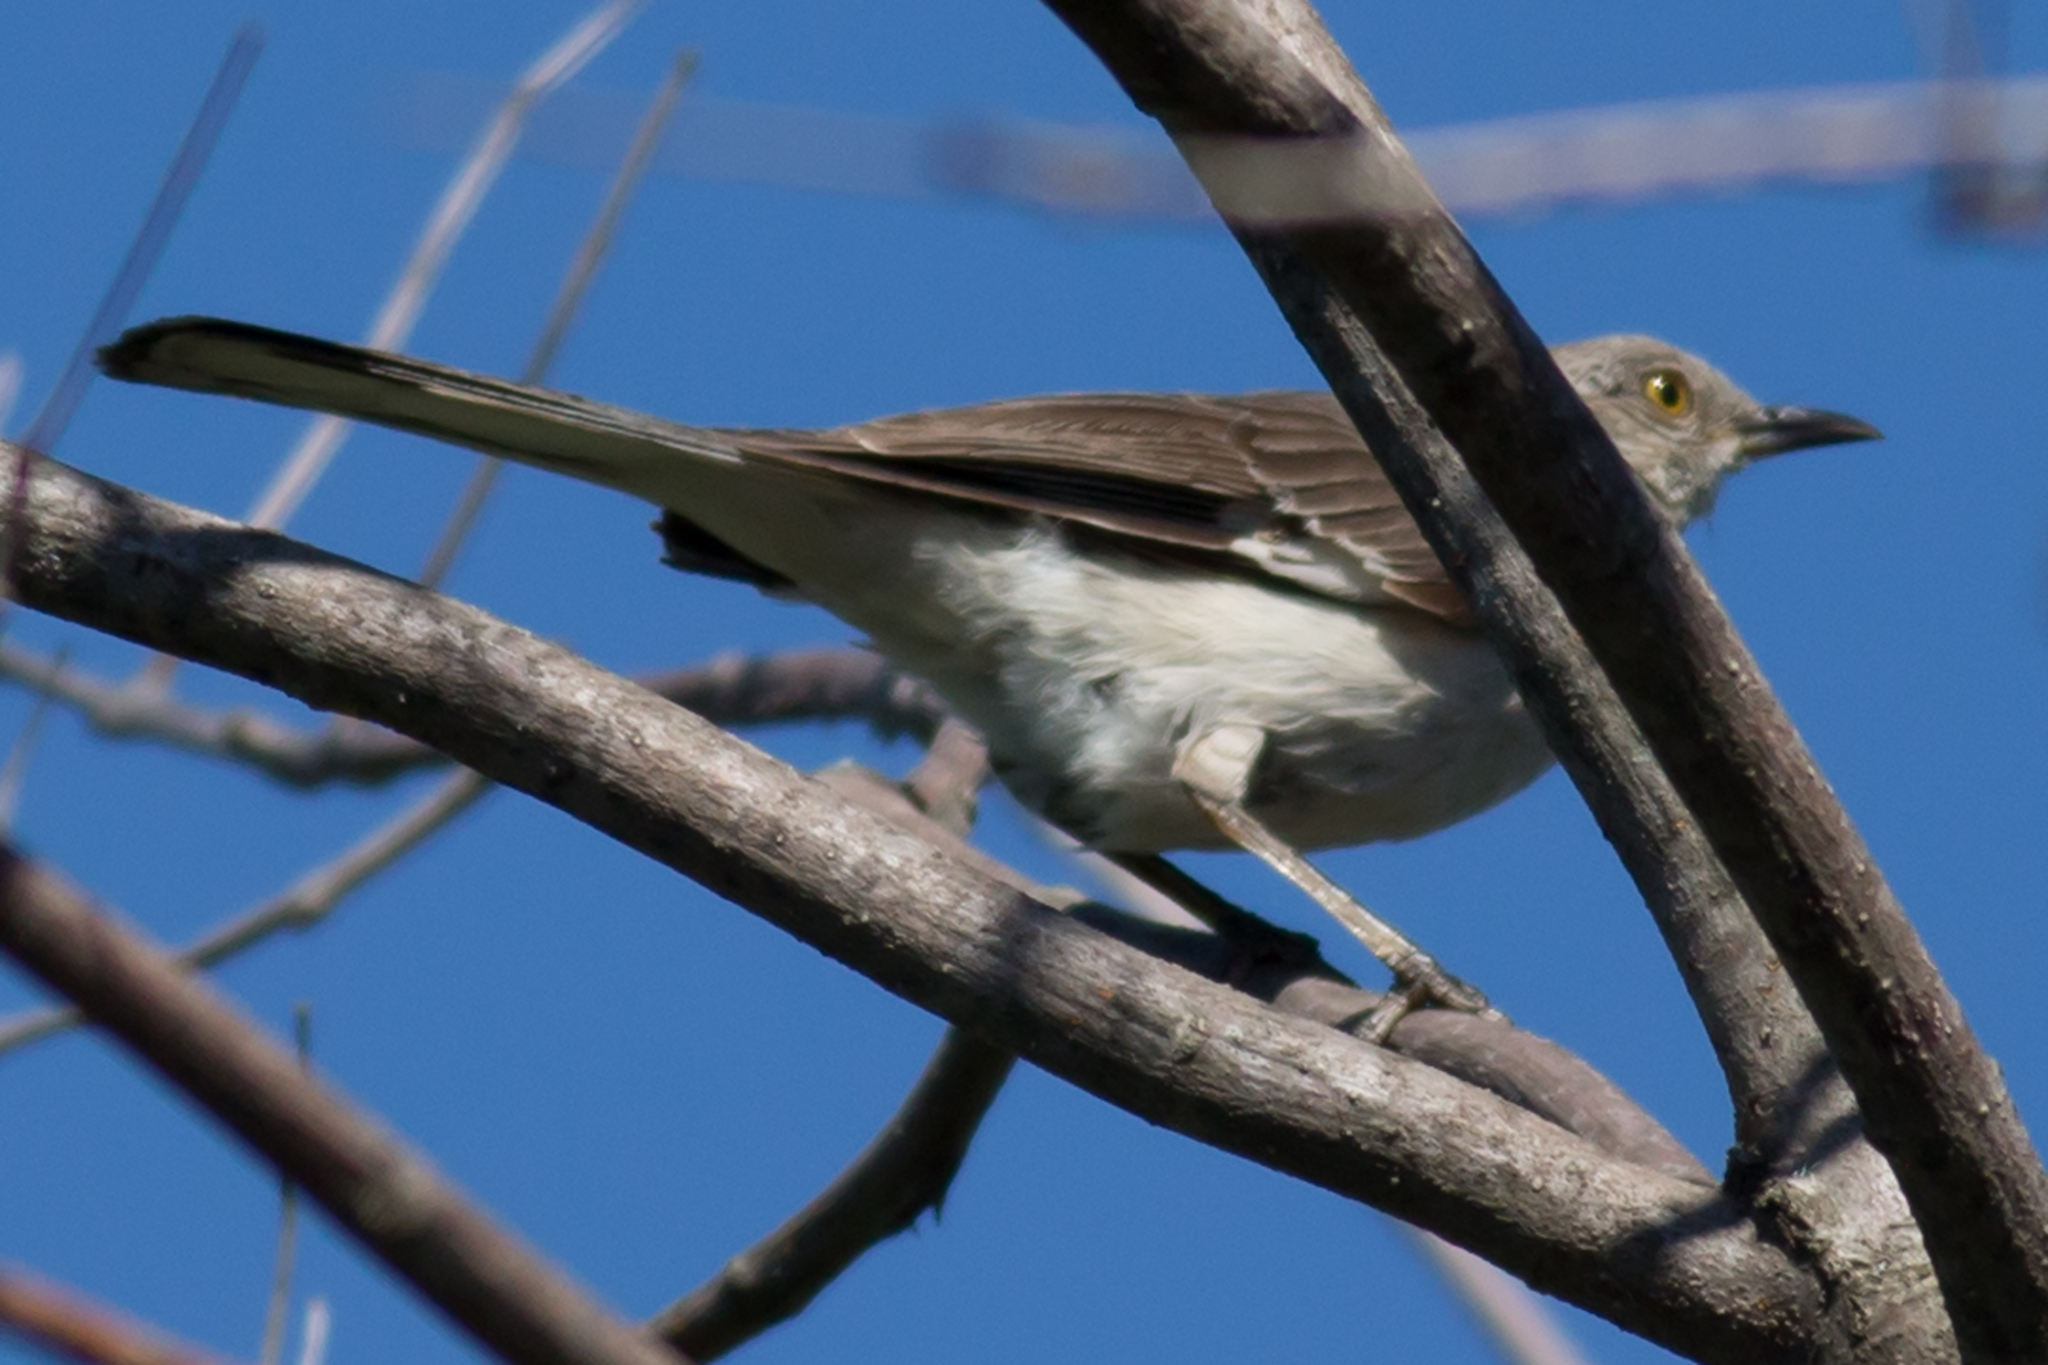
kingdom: Animalia
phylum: Chordata
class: Aves
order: Passeriformes
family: Mimidae
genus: Mimus
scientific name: Mimus polyglottos
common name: Northern mockingbird
